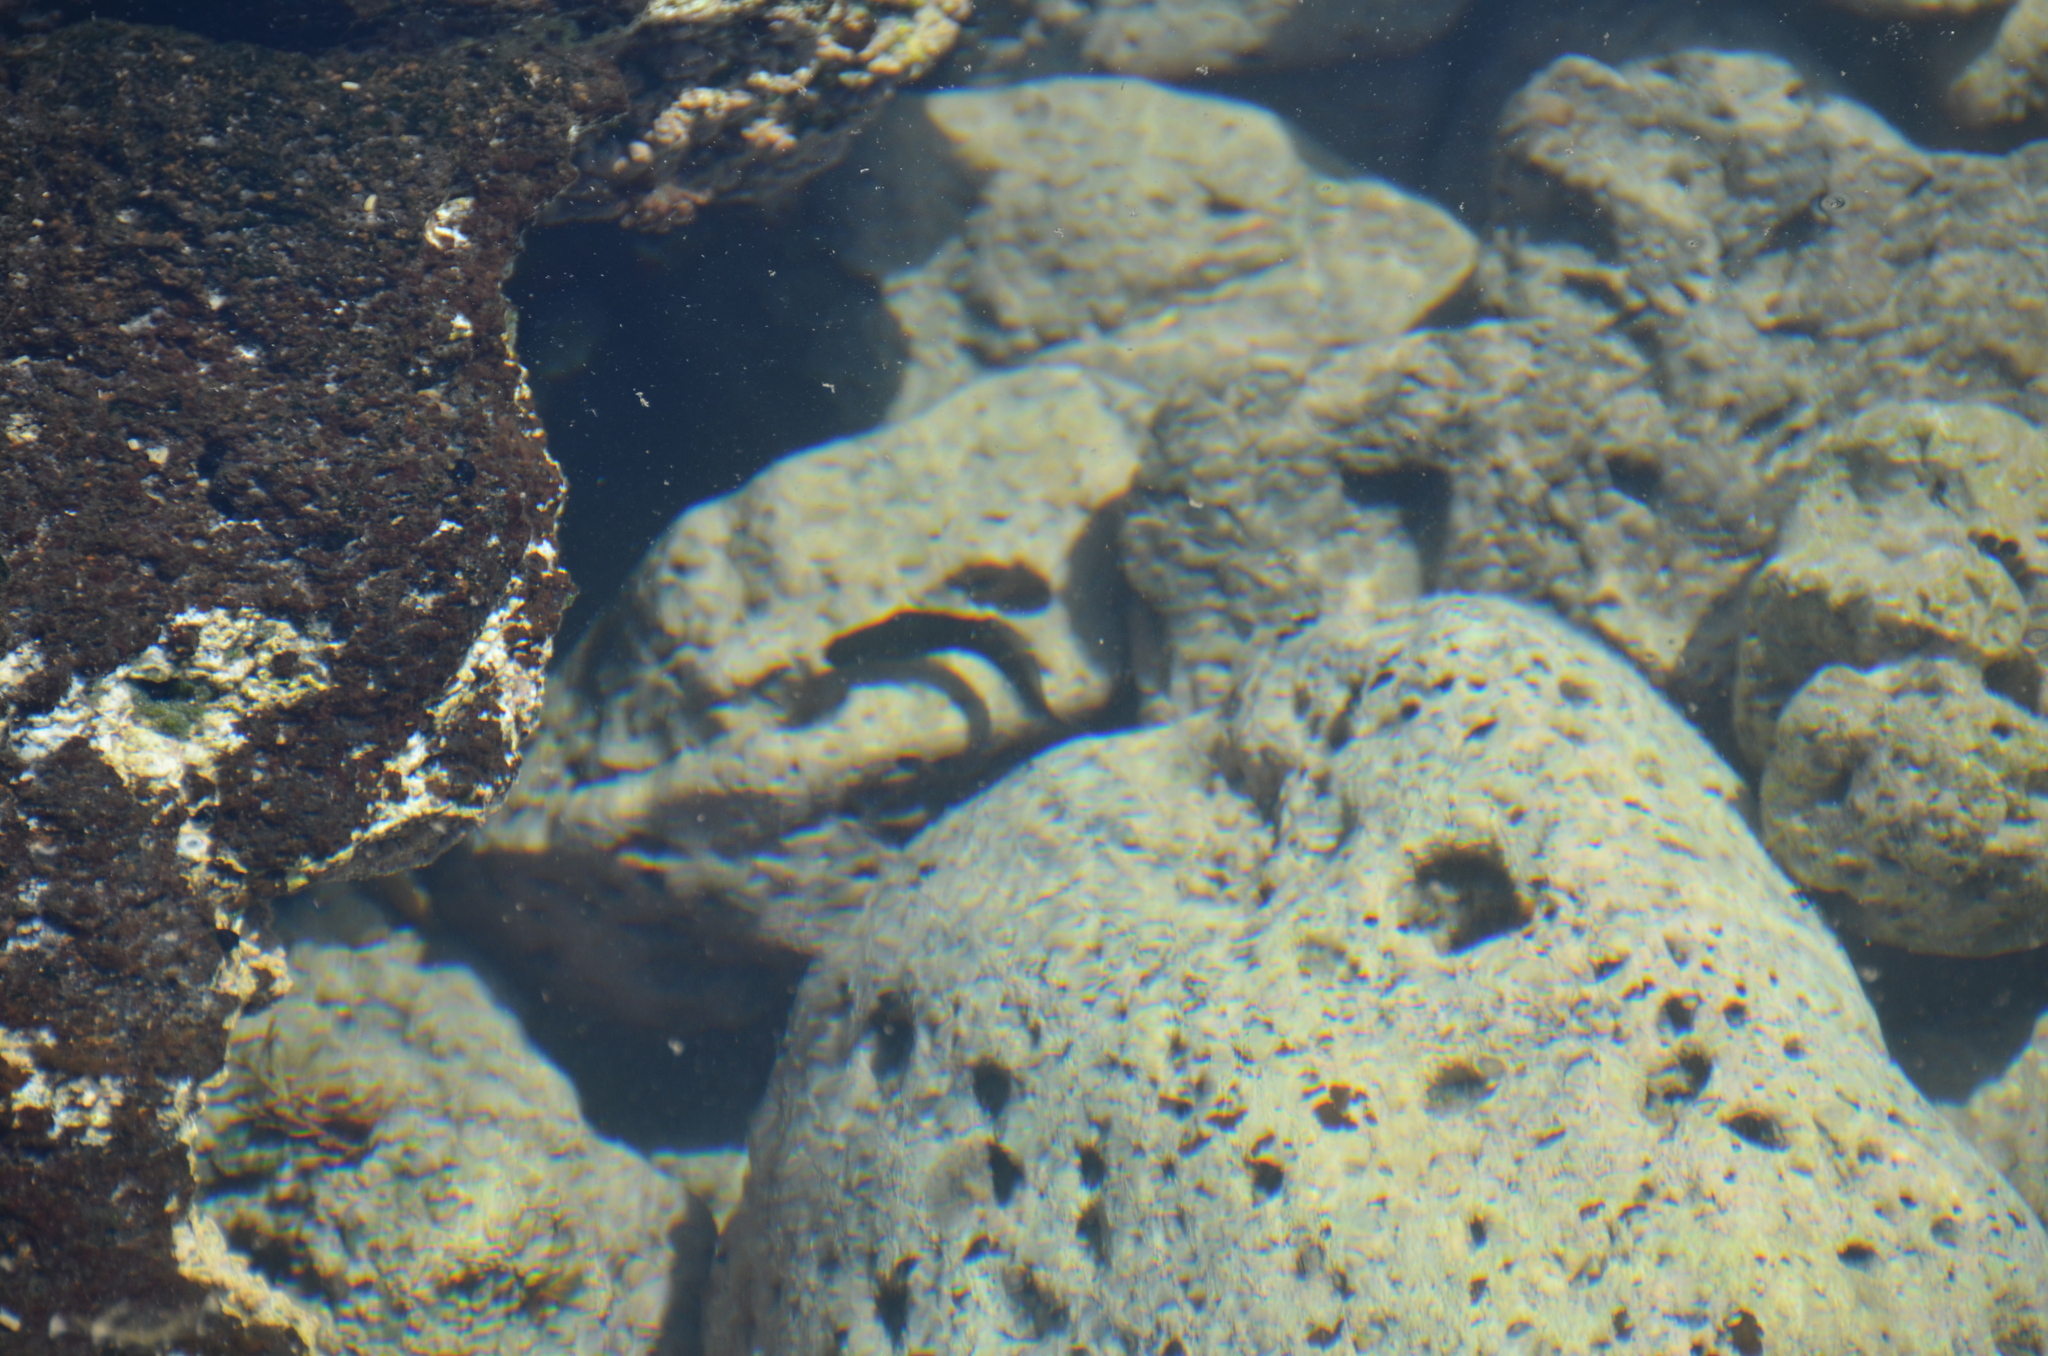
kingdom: Animalia
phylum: Chordata
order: Perciformes
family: Blenniidae
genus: Istiblennius
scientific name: Istiblennius zebra
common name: Zebra blenny
